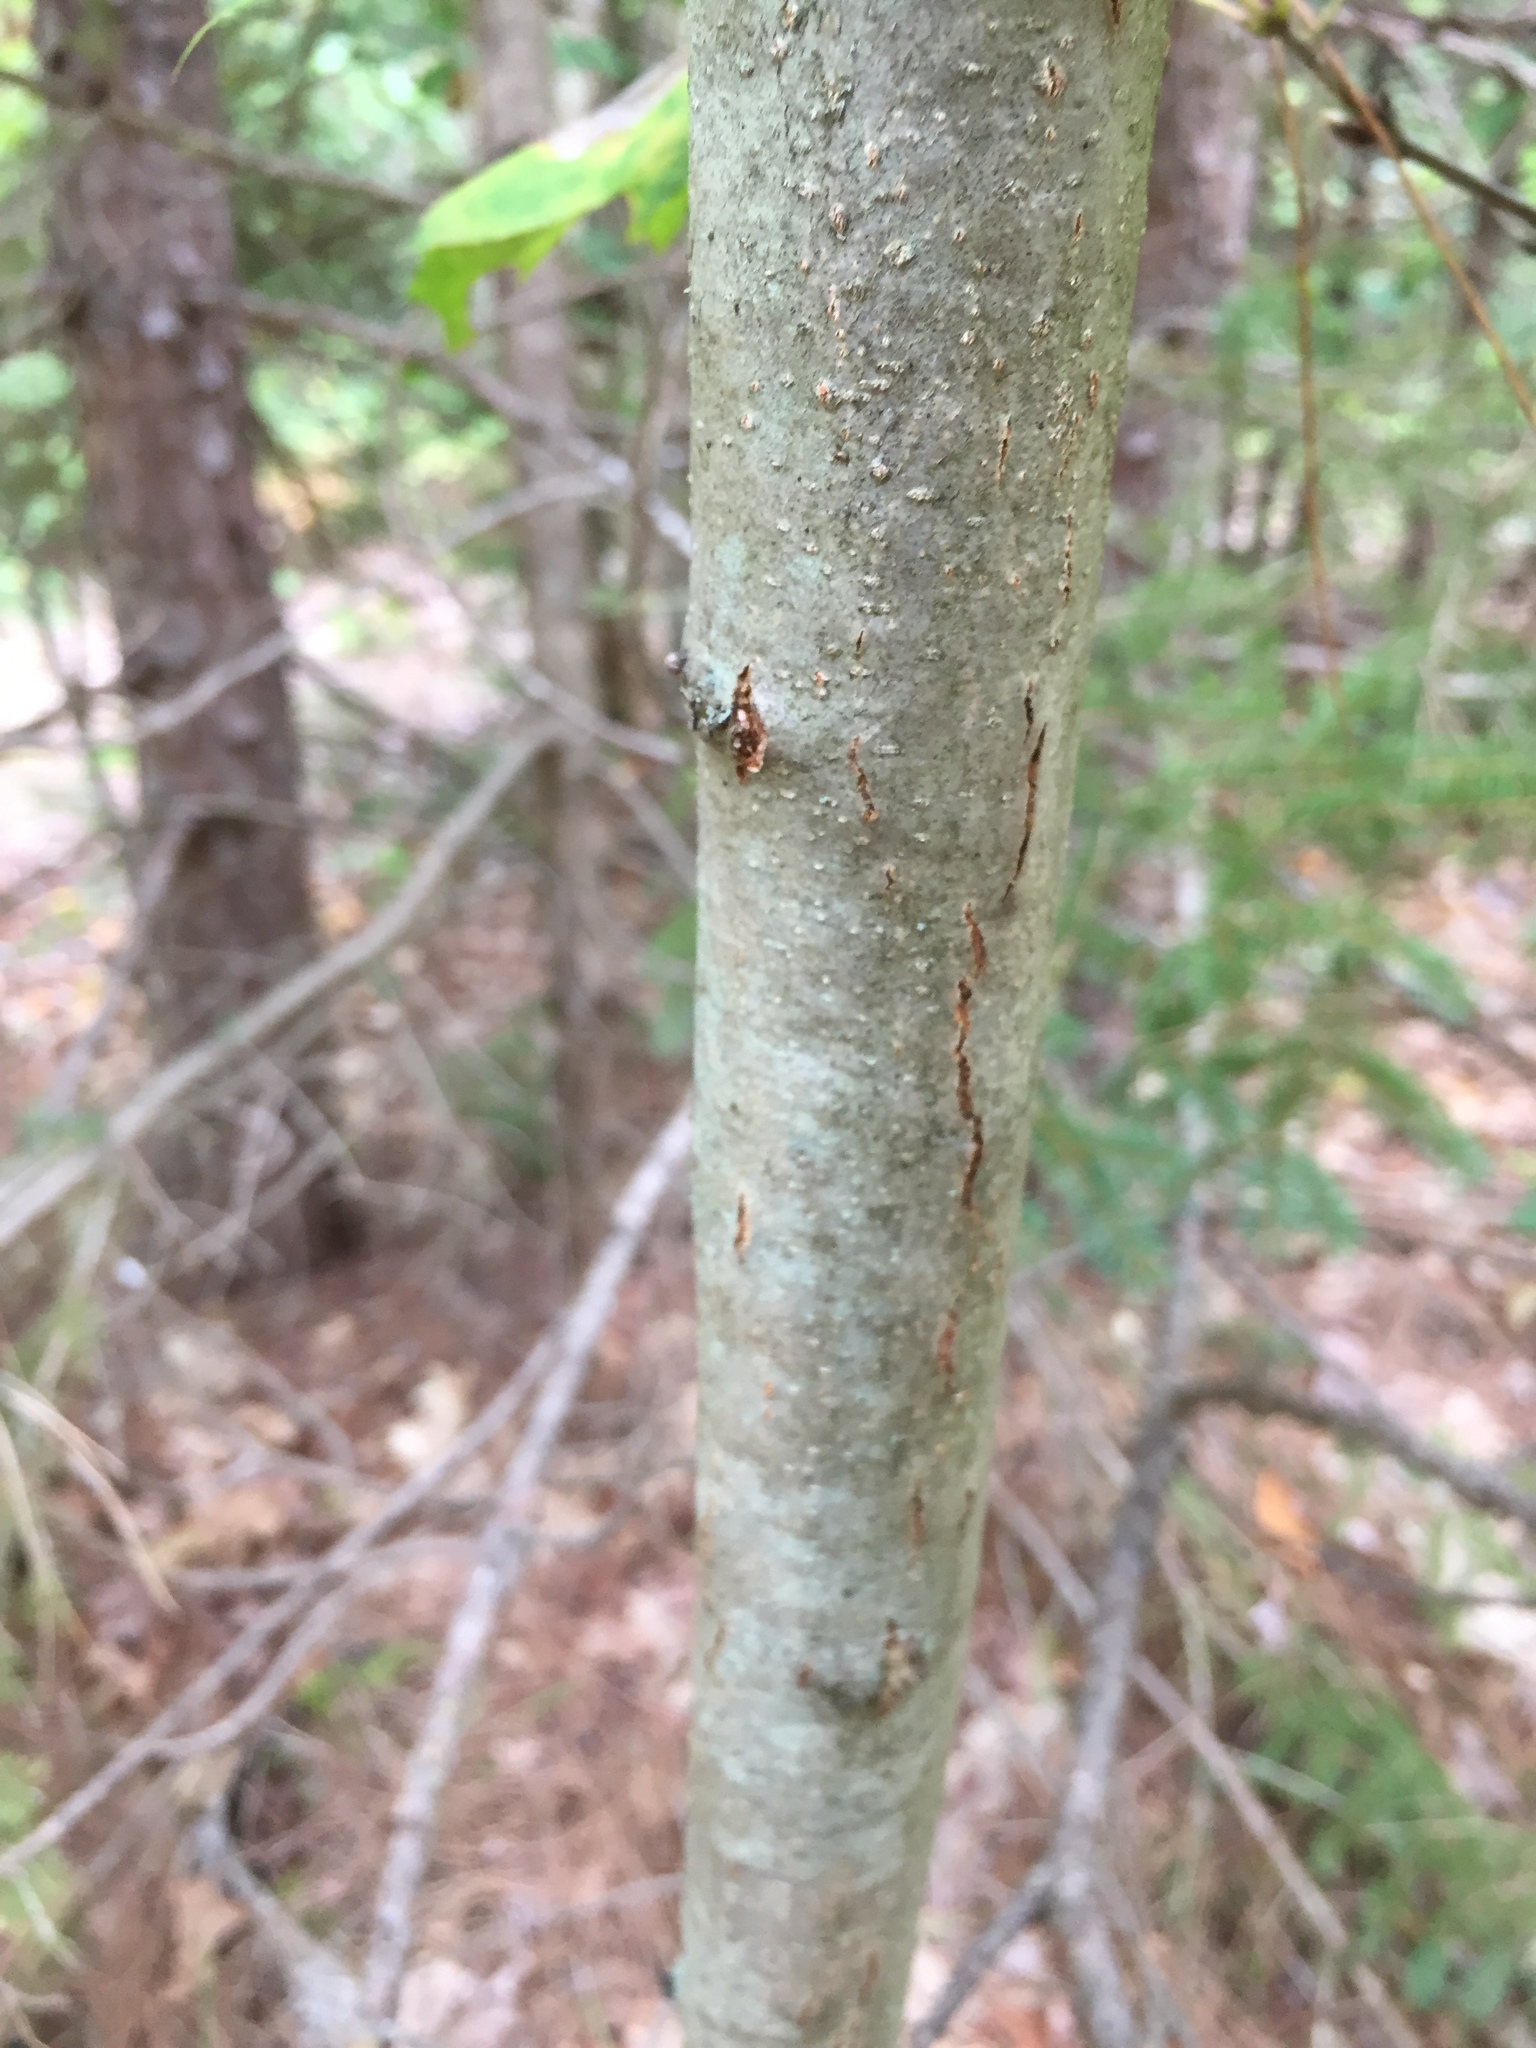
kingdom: Plantae
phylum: Tracheophyta
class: Magnoliopsida
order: Fagales
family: Fagaceae
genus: Quercus
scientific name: Quercus rubra
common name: Red oak
